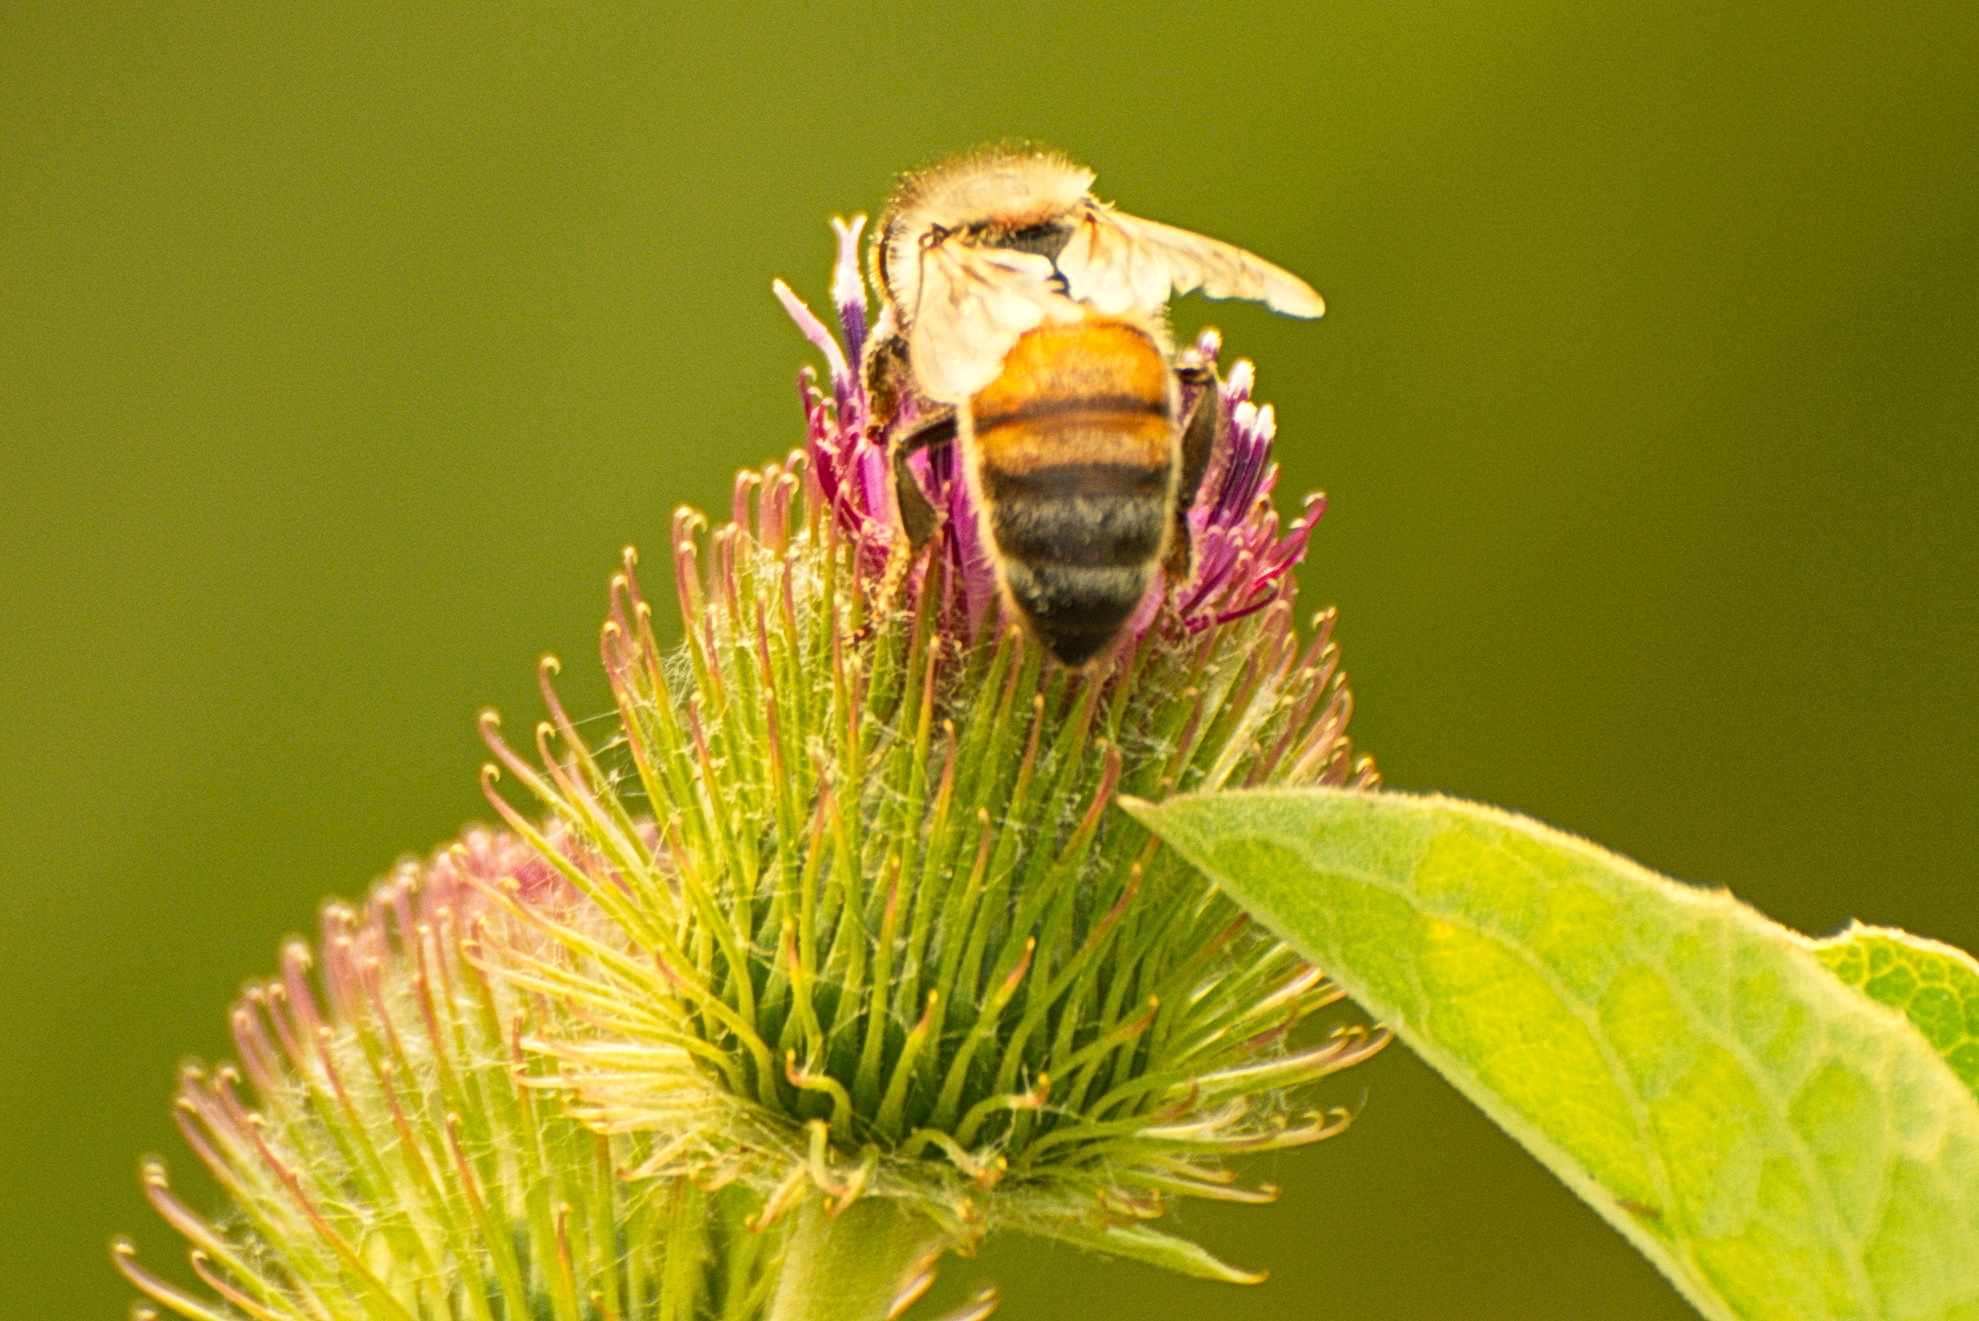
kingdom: Animalia
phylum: Arthropoda
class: Insecta
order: Hymenoptera
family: Apidae
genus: Apis
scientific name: Apis mellifera
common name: Honey bee
